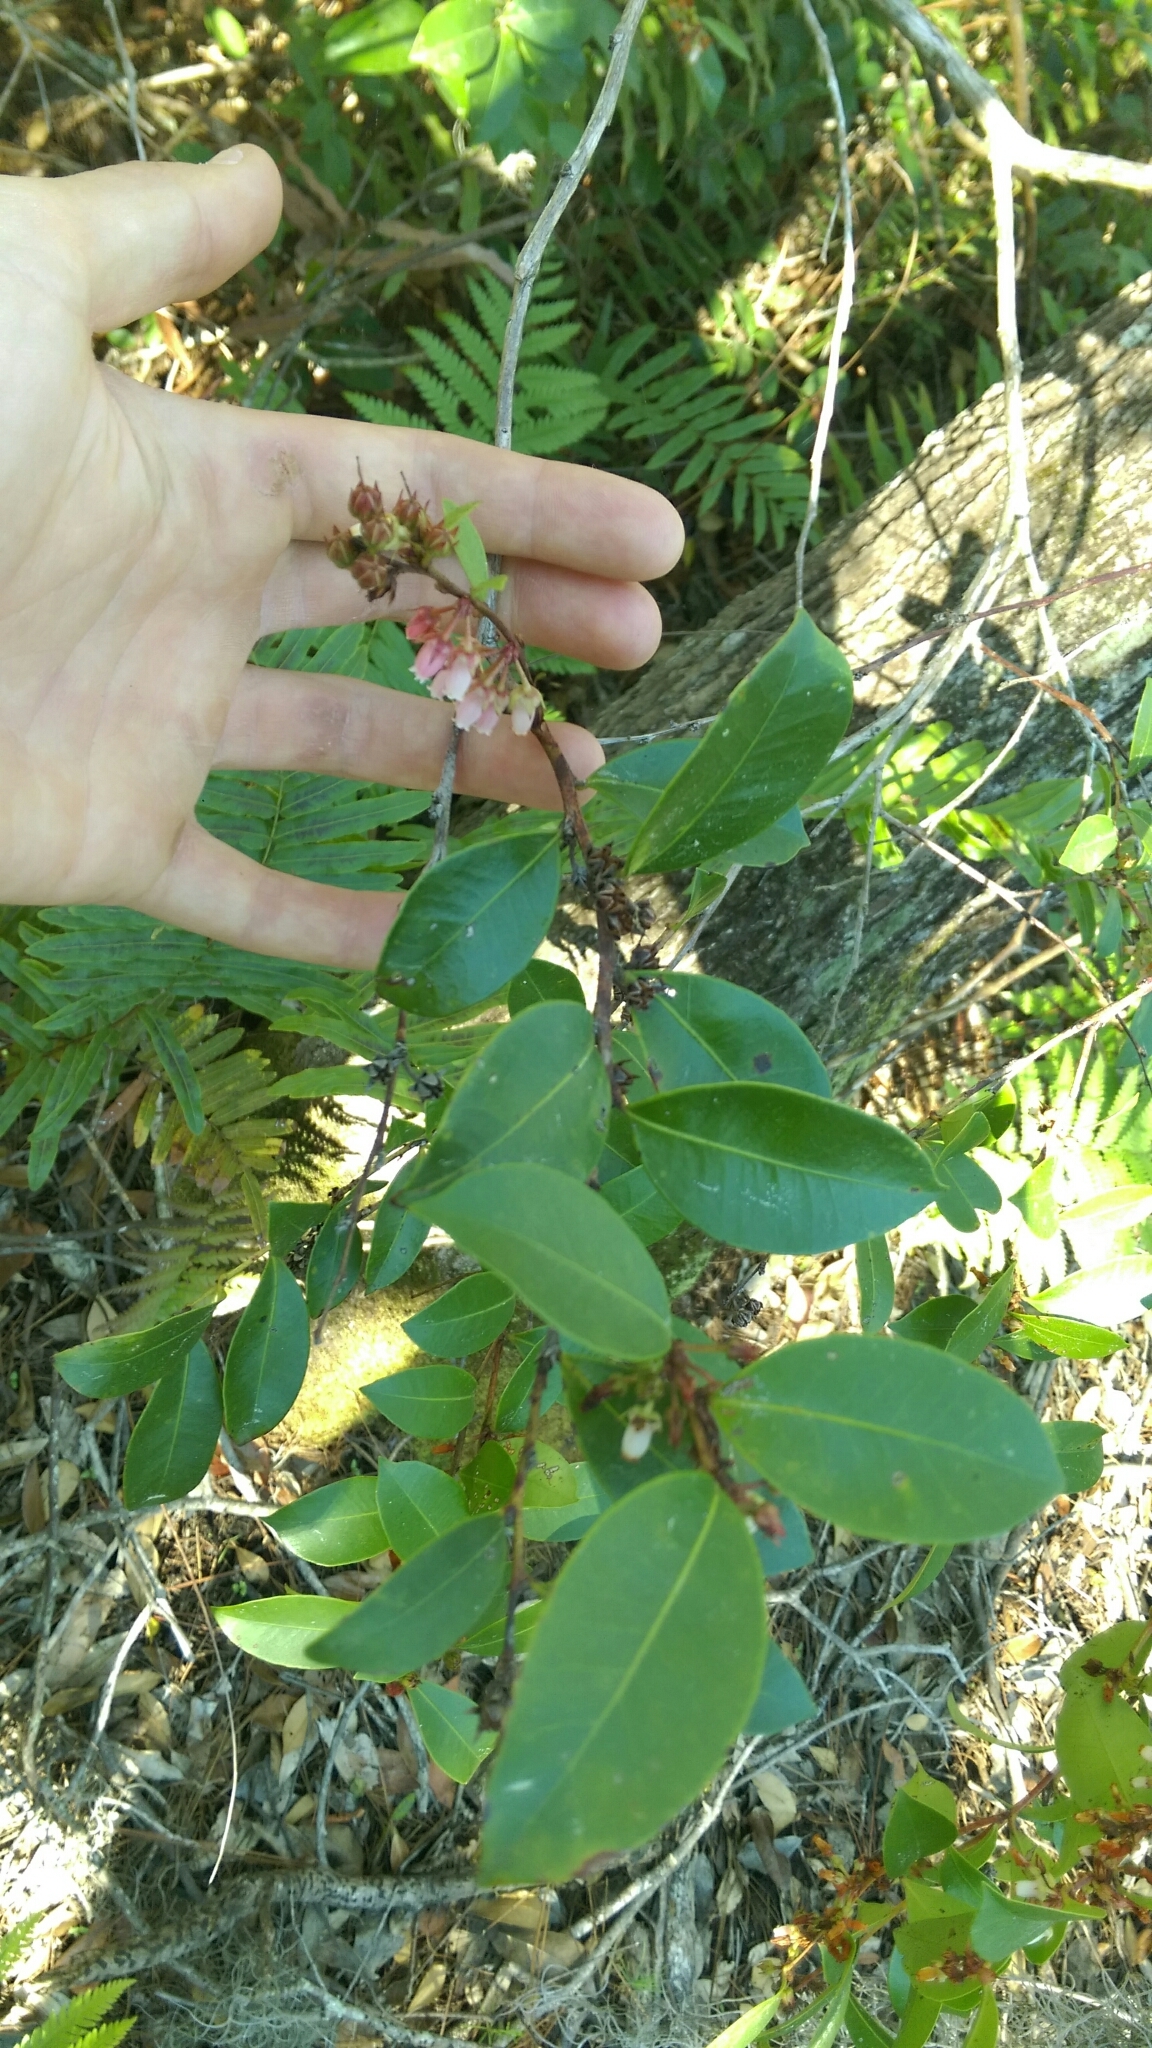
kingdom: Plantae
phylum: Tracheophyta
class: Magnoliopsida
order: Ericales
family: Ericaceae
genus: Lyonia
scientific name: Lyonia lucida
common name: Fetterbush
